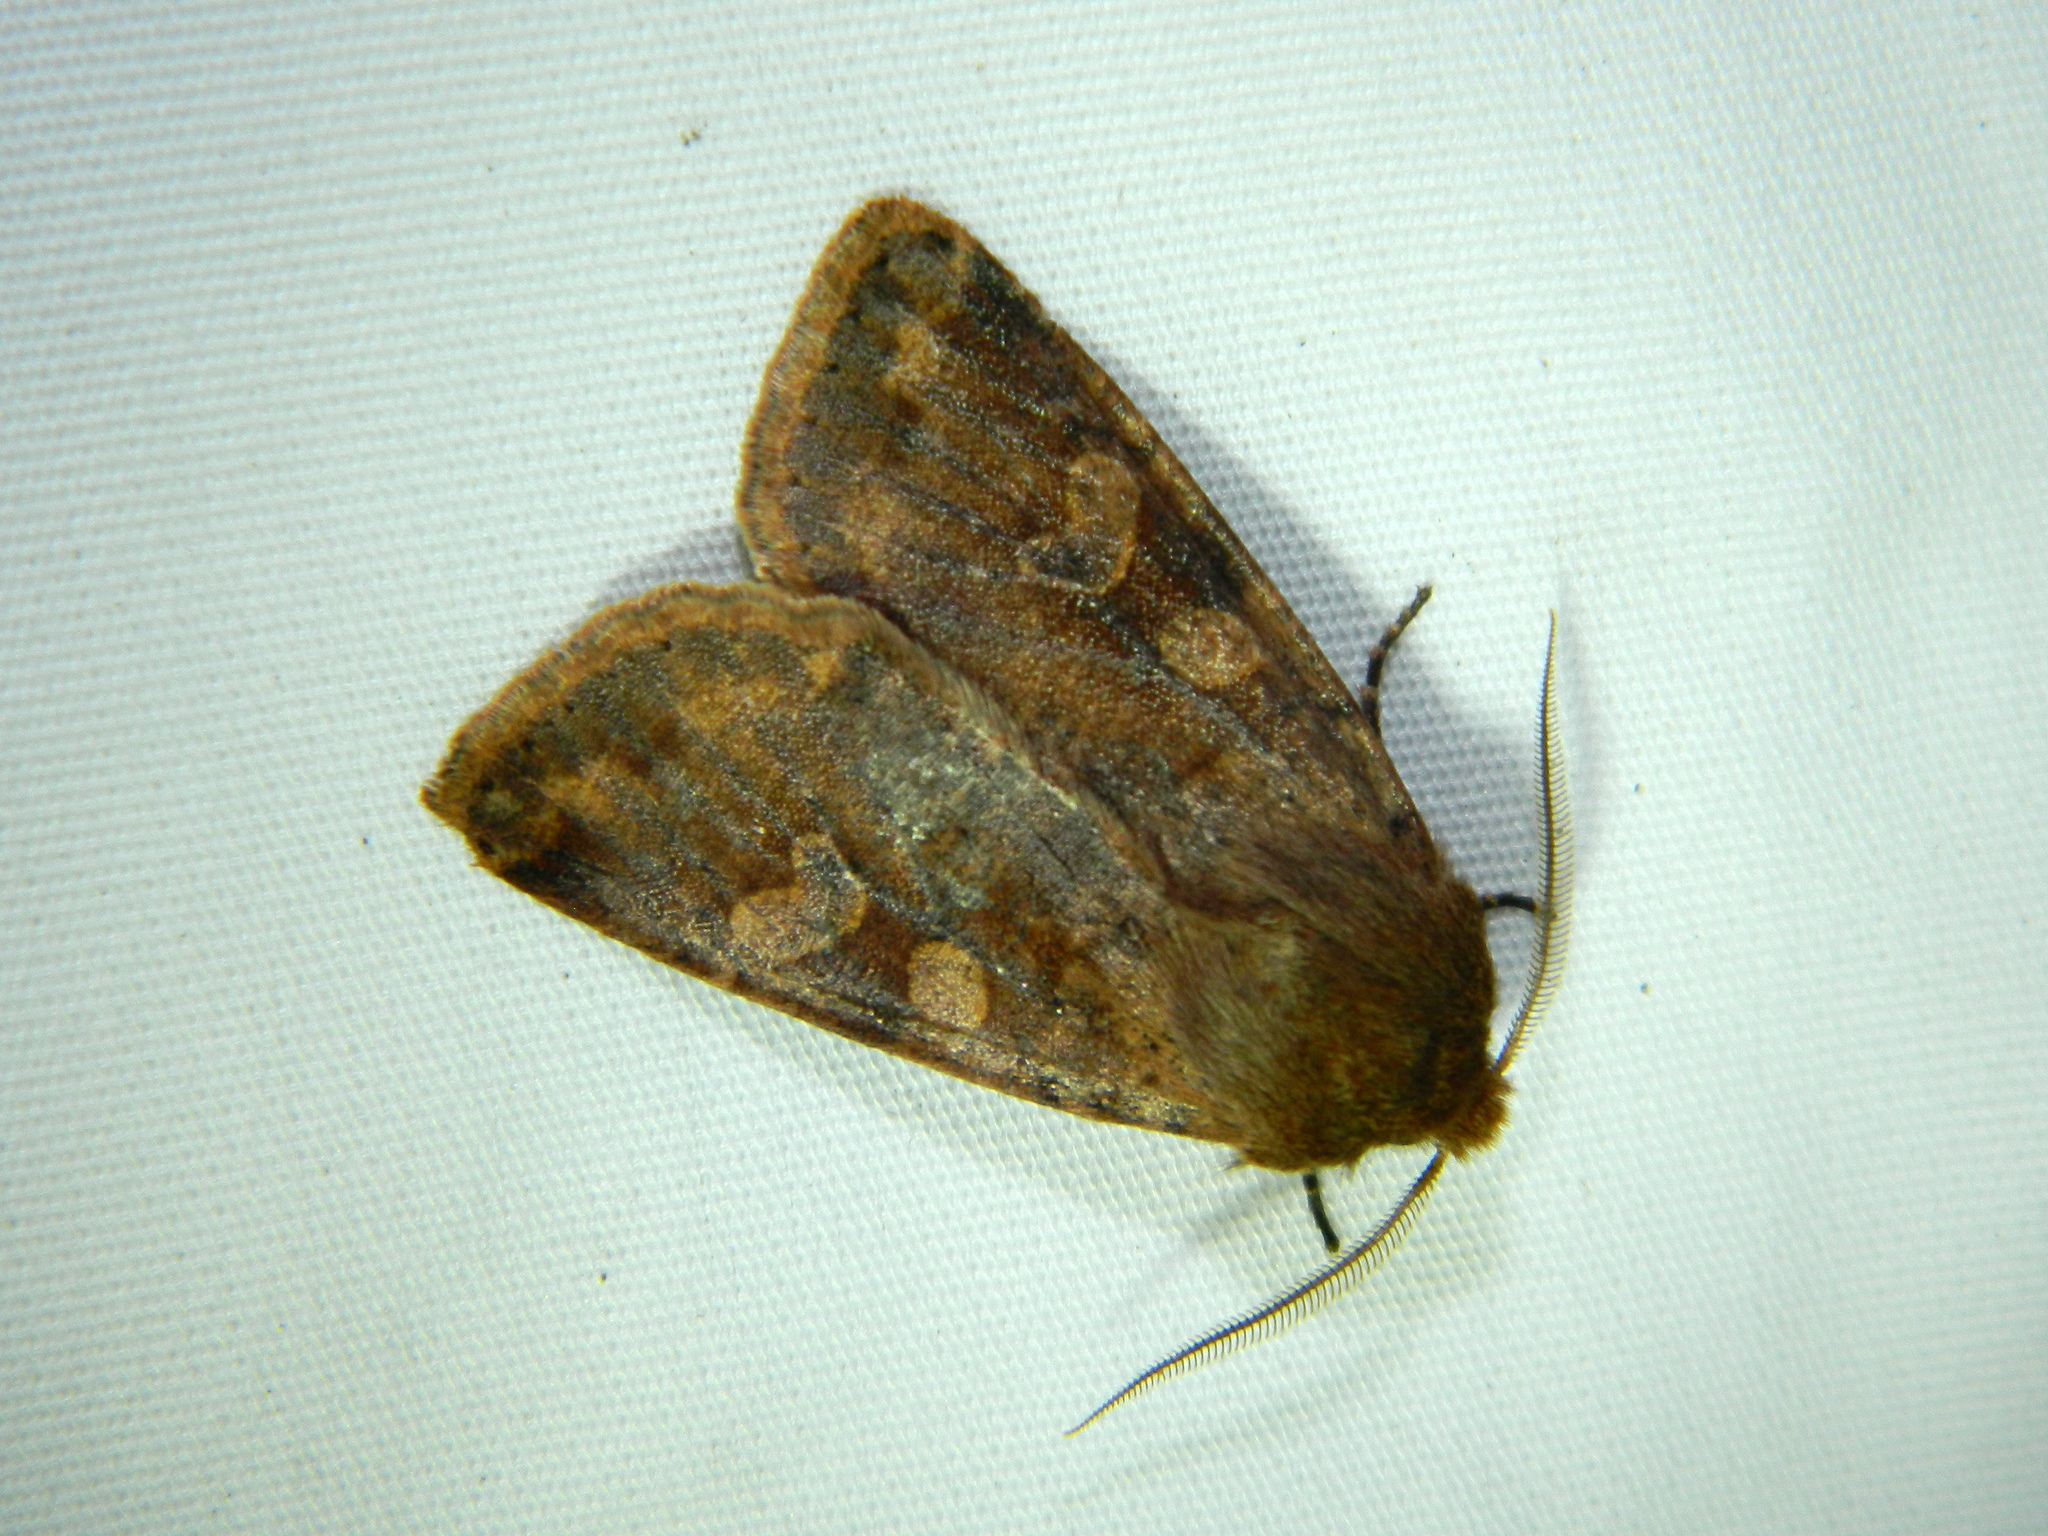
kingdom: Animalia
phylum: Arthropoda
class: Insecta
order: Lepidoptera
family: Noctuidae
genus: Orthosia
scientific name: Orthosia rubescens
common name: Ruby quaker
